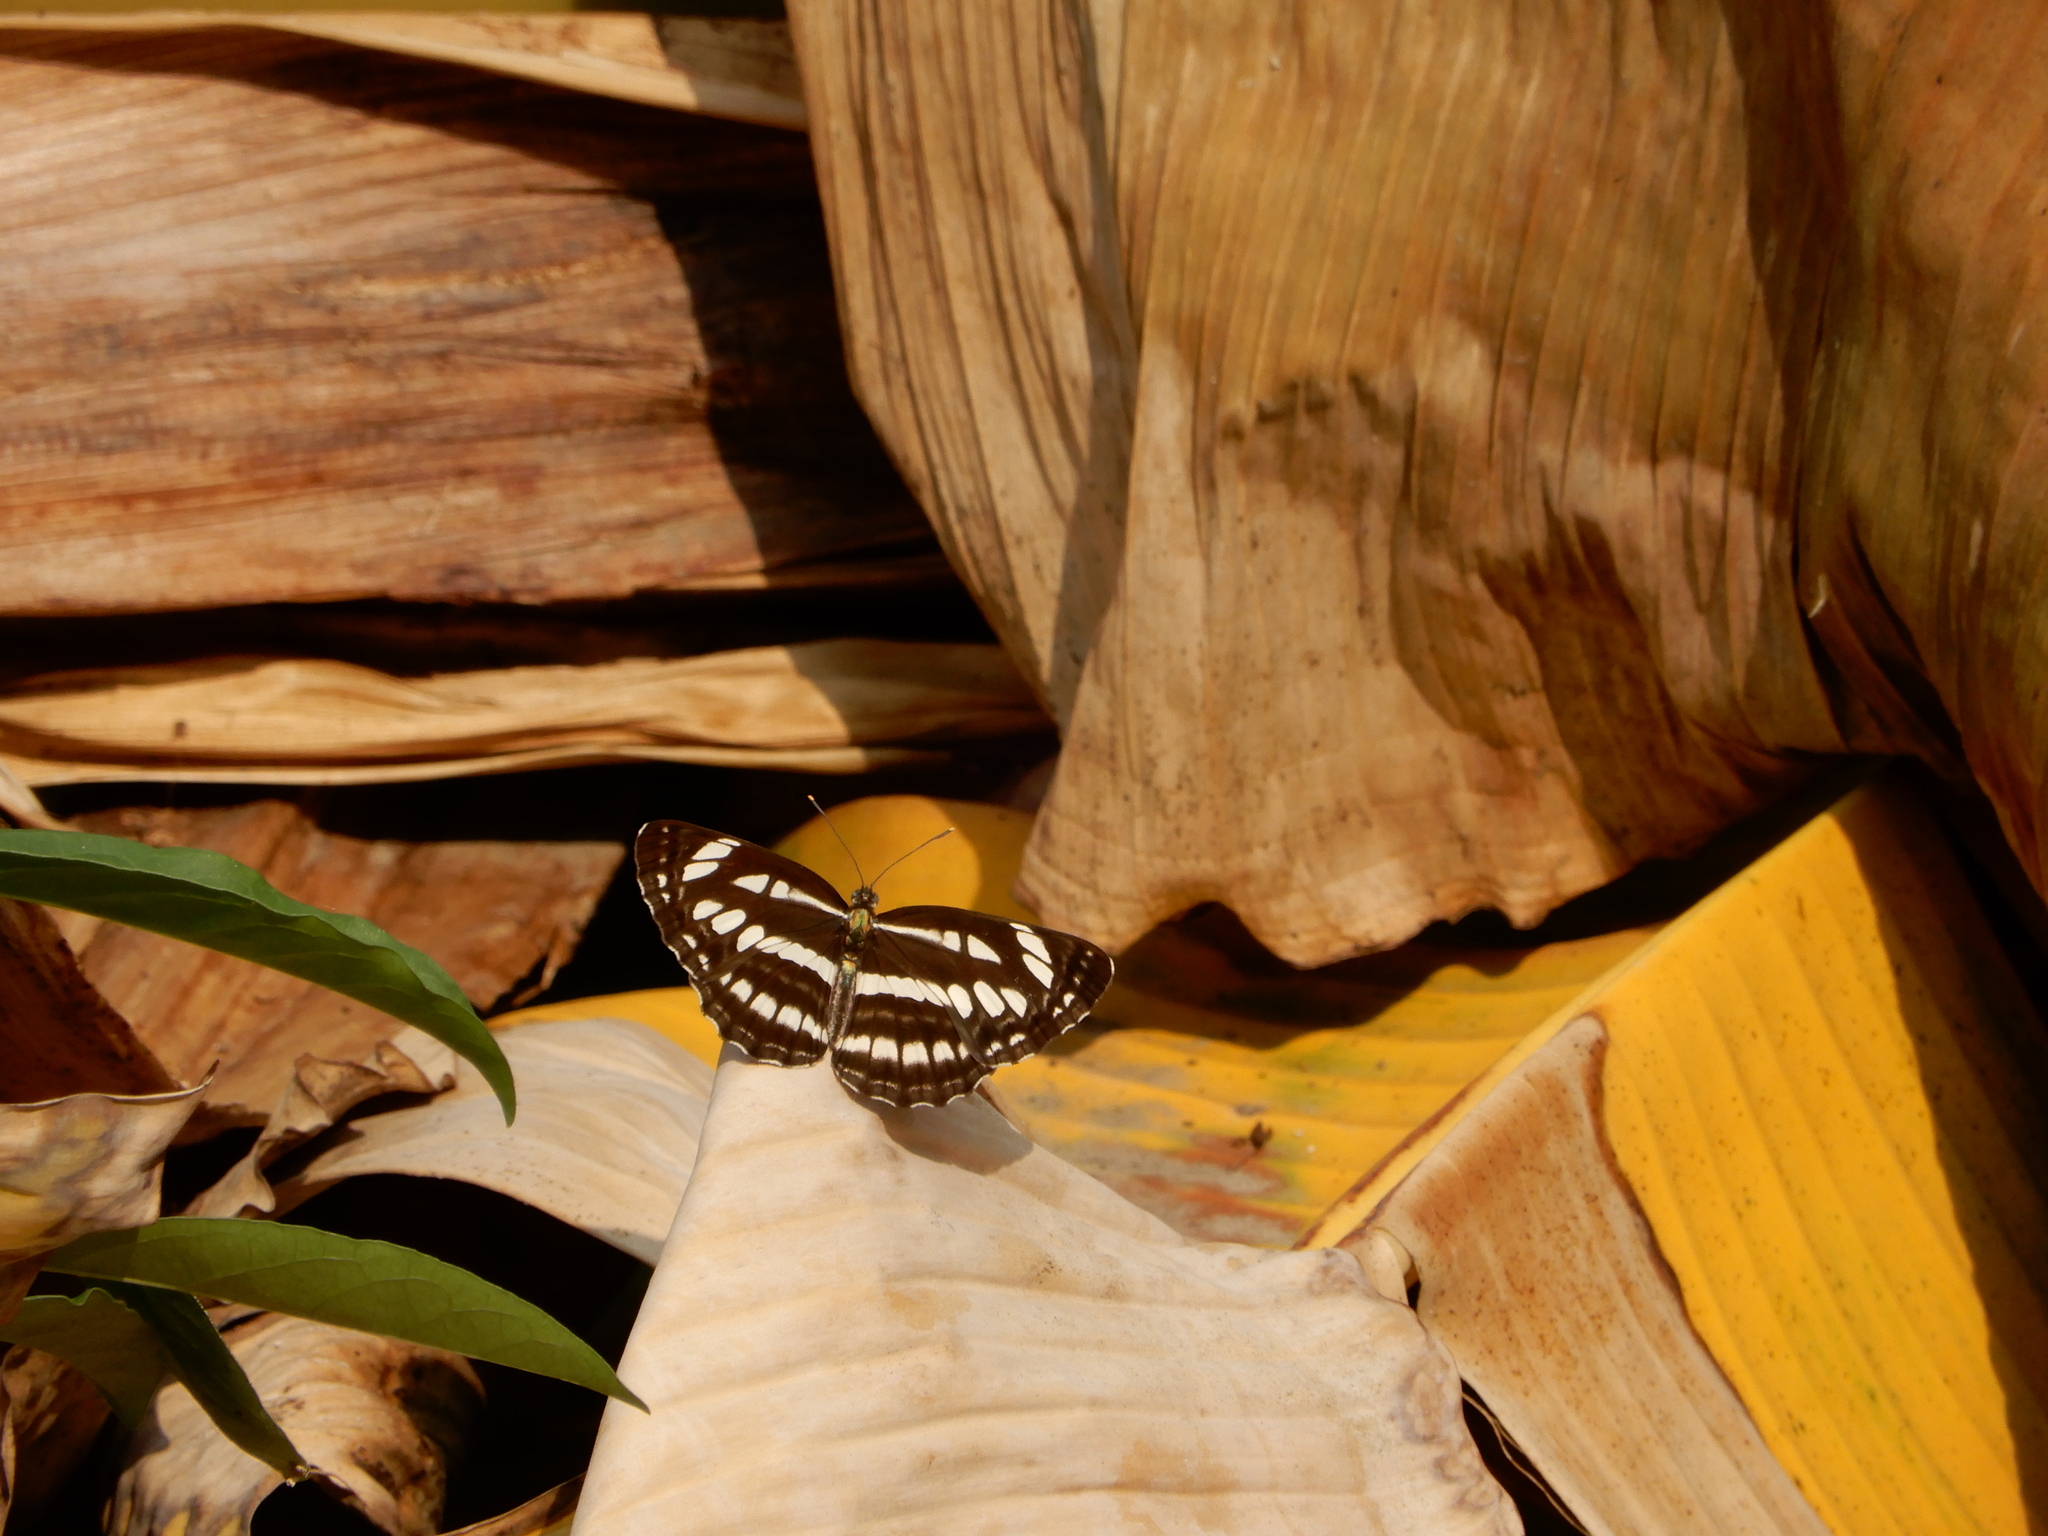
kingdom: Animalia
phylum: Arthropoda
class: Insecta
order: Lepidoptera
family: Nymphalidae
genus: Neptis
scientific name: Neptis hylas
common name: Common sailer
